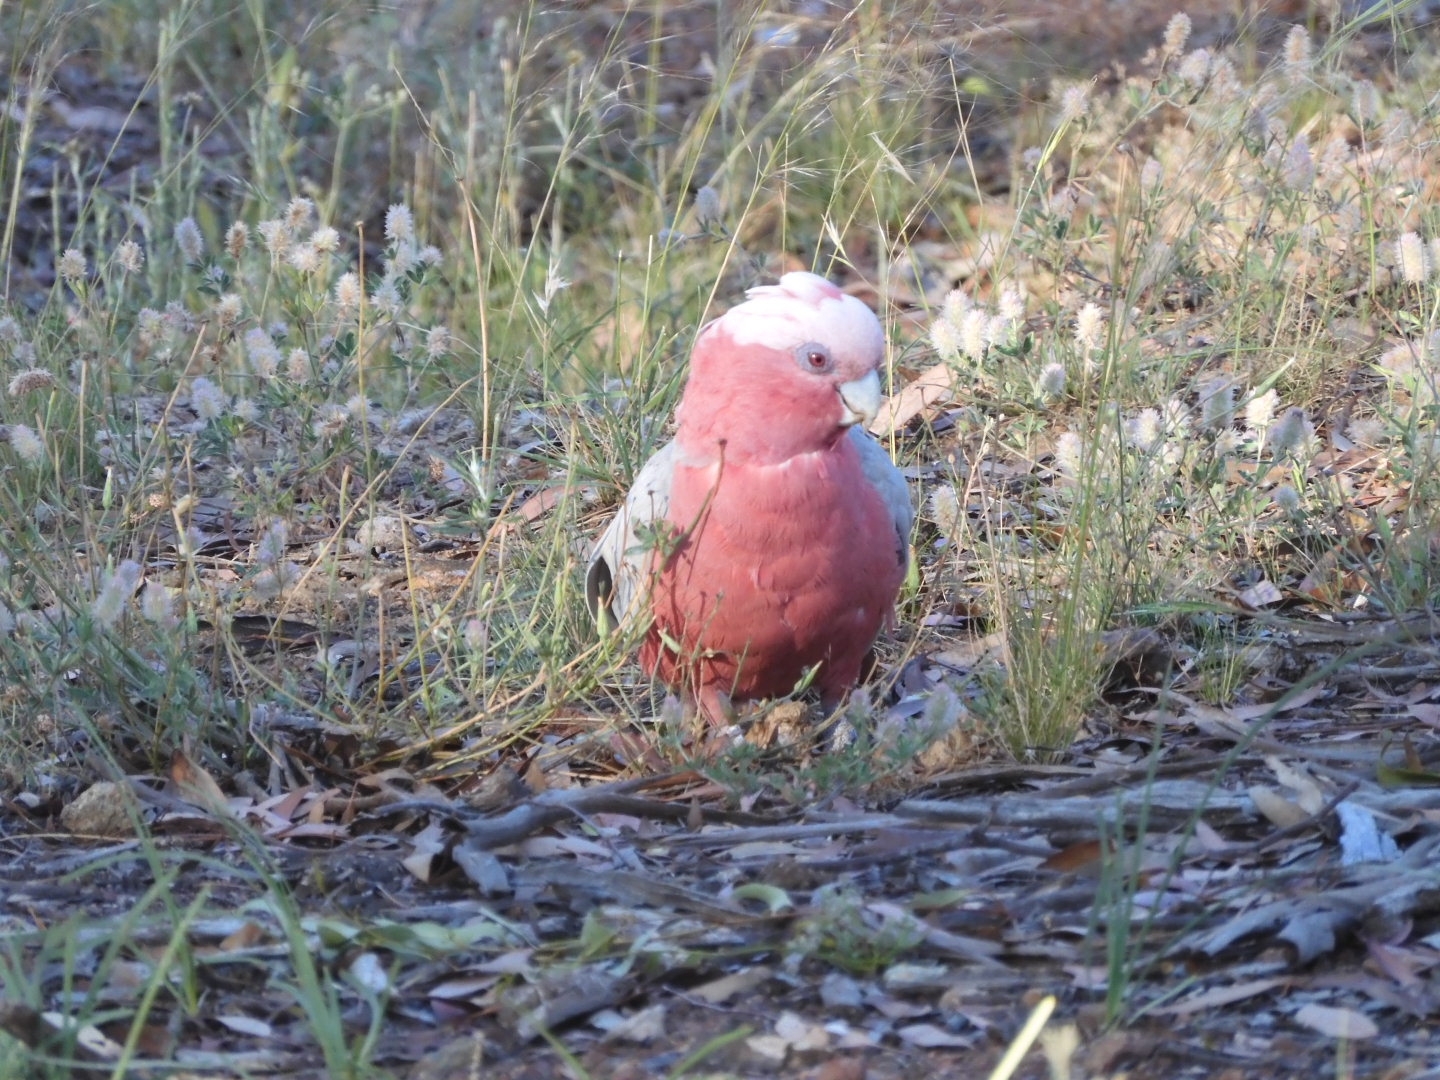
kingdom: Animalia
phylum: Chordata
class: Aves
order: Psittaciformes
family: Psittacidae
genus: Eolophus
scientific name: Eolophus roseicapilla
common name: Galah
